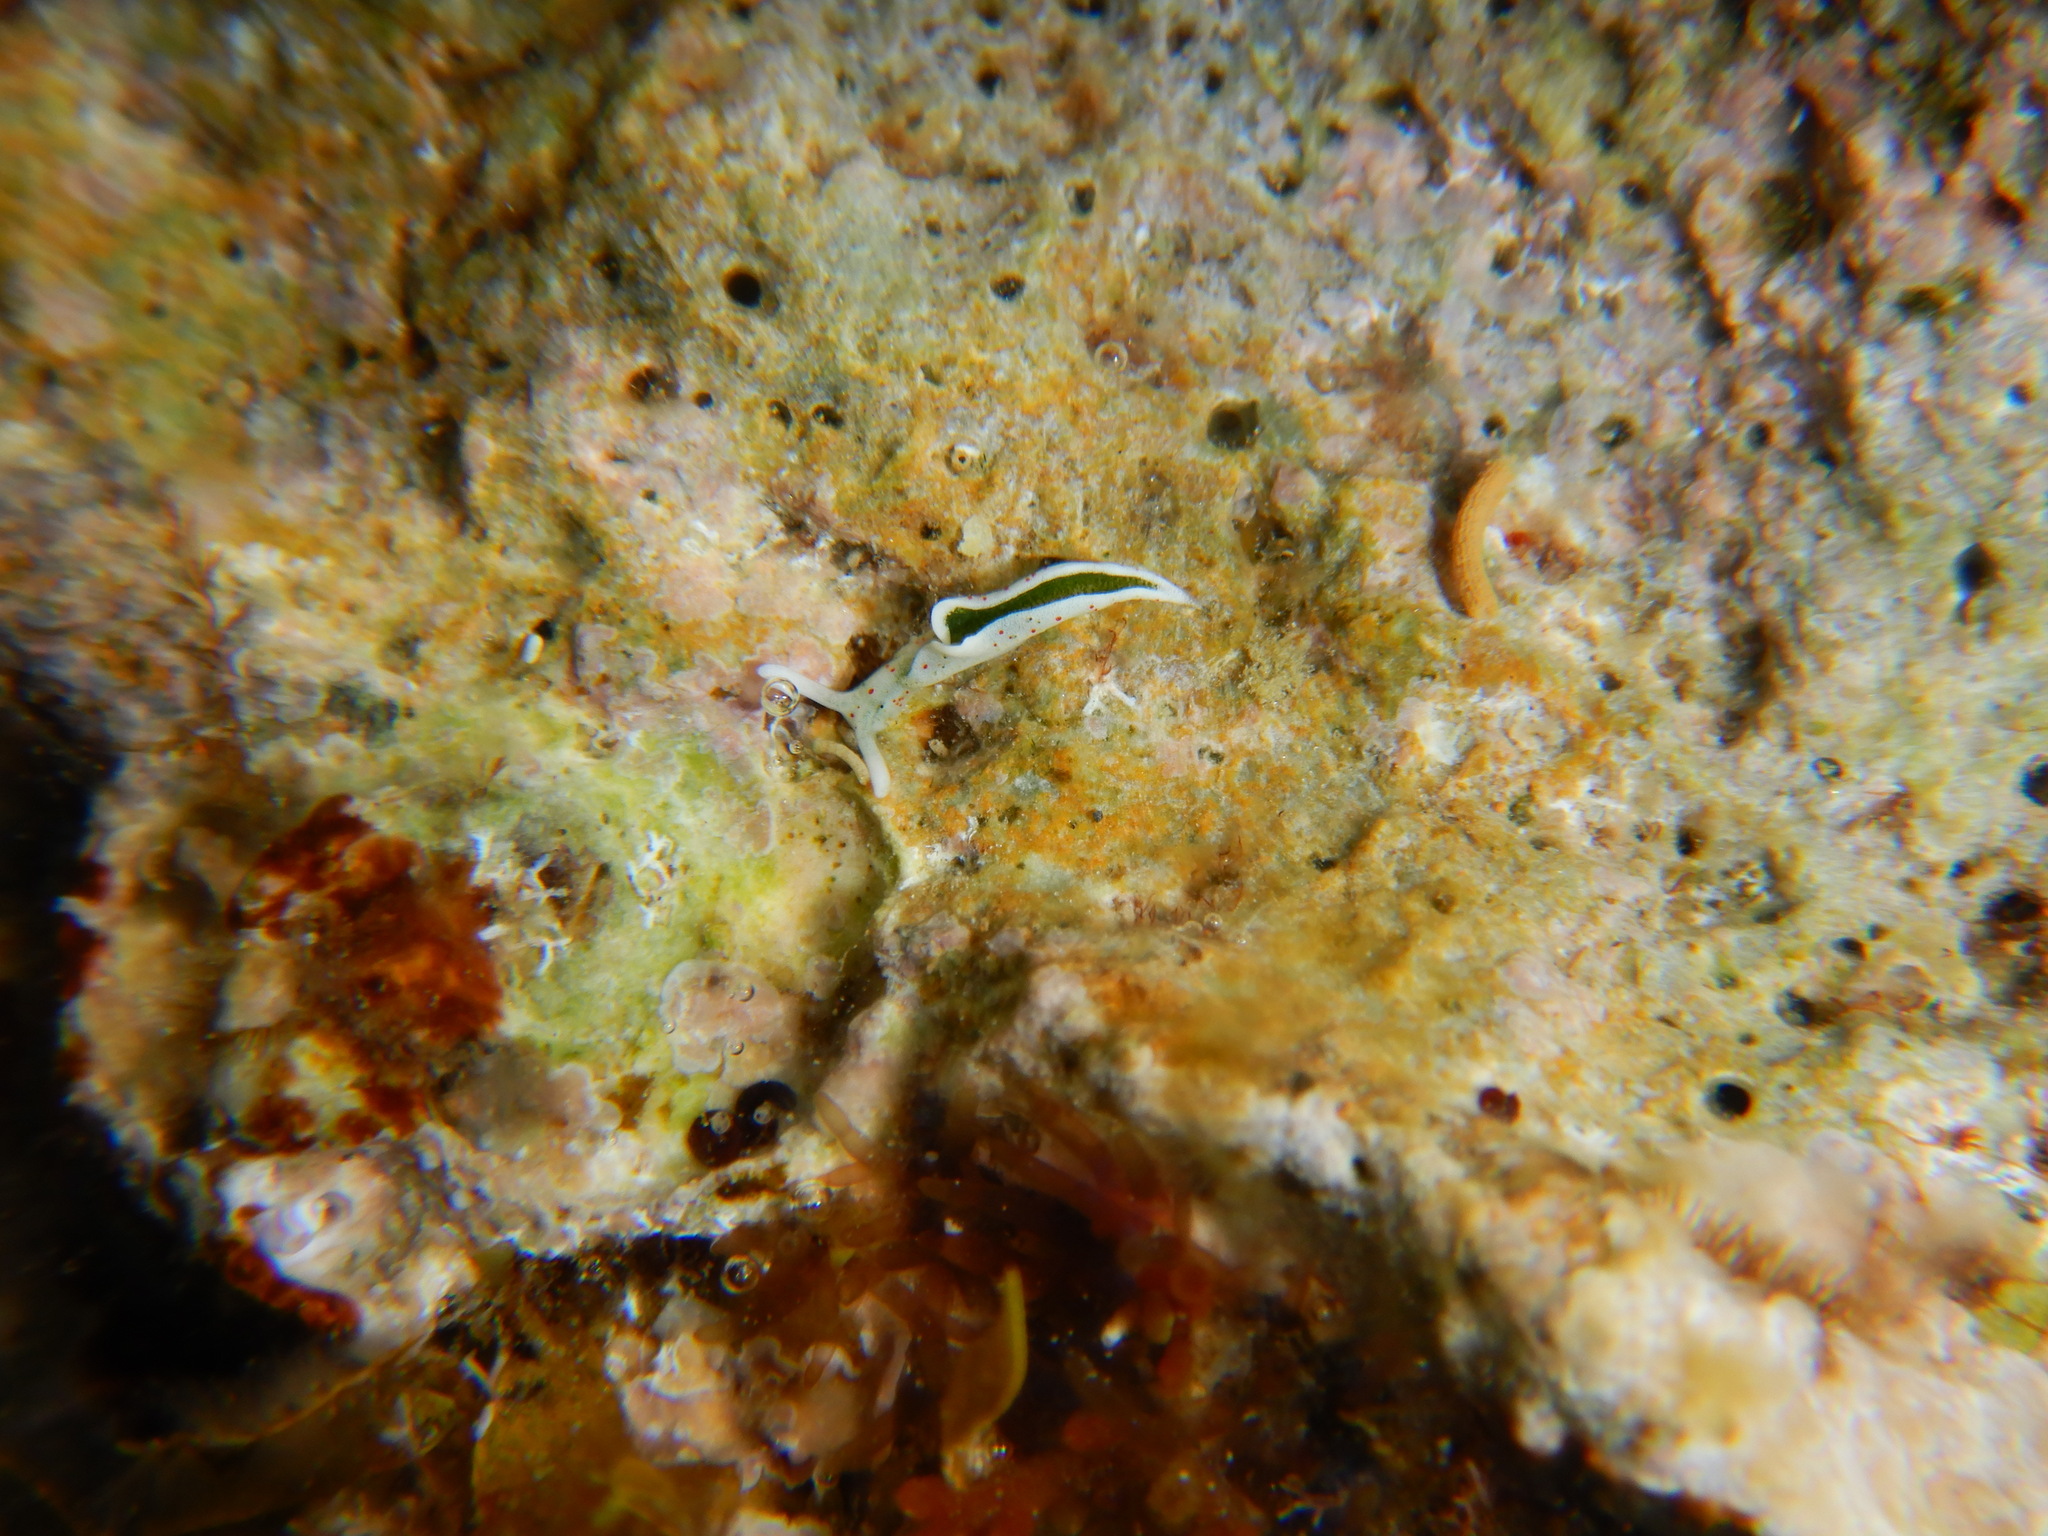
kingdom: Animalia
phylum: Mollusca
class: Gastropoda
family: Plakobranchidae
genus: Elysia
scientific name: Elysia timida
